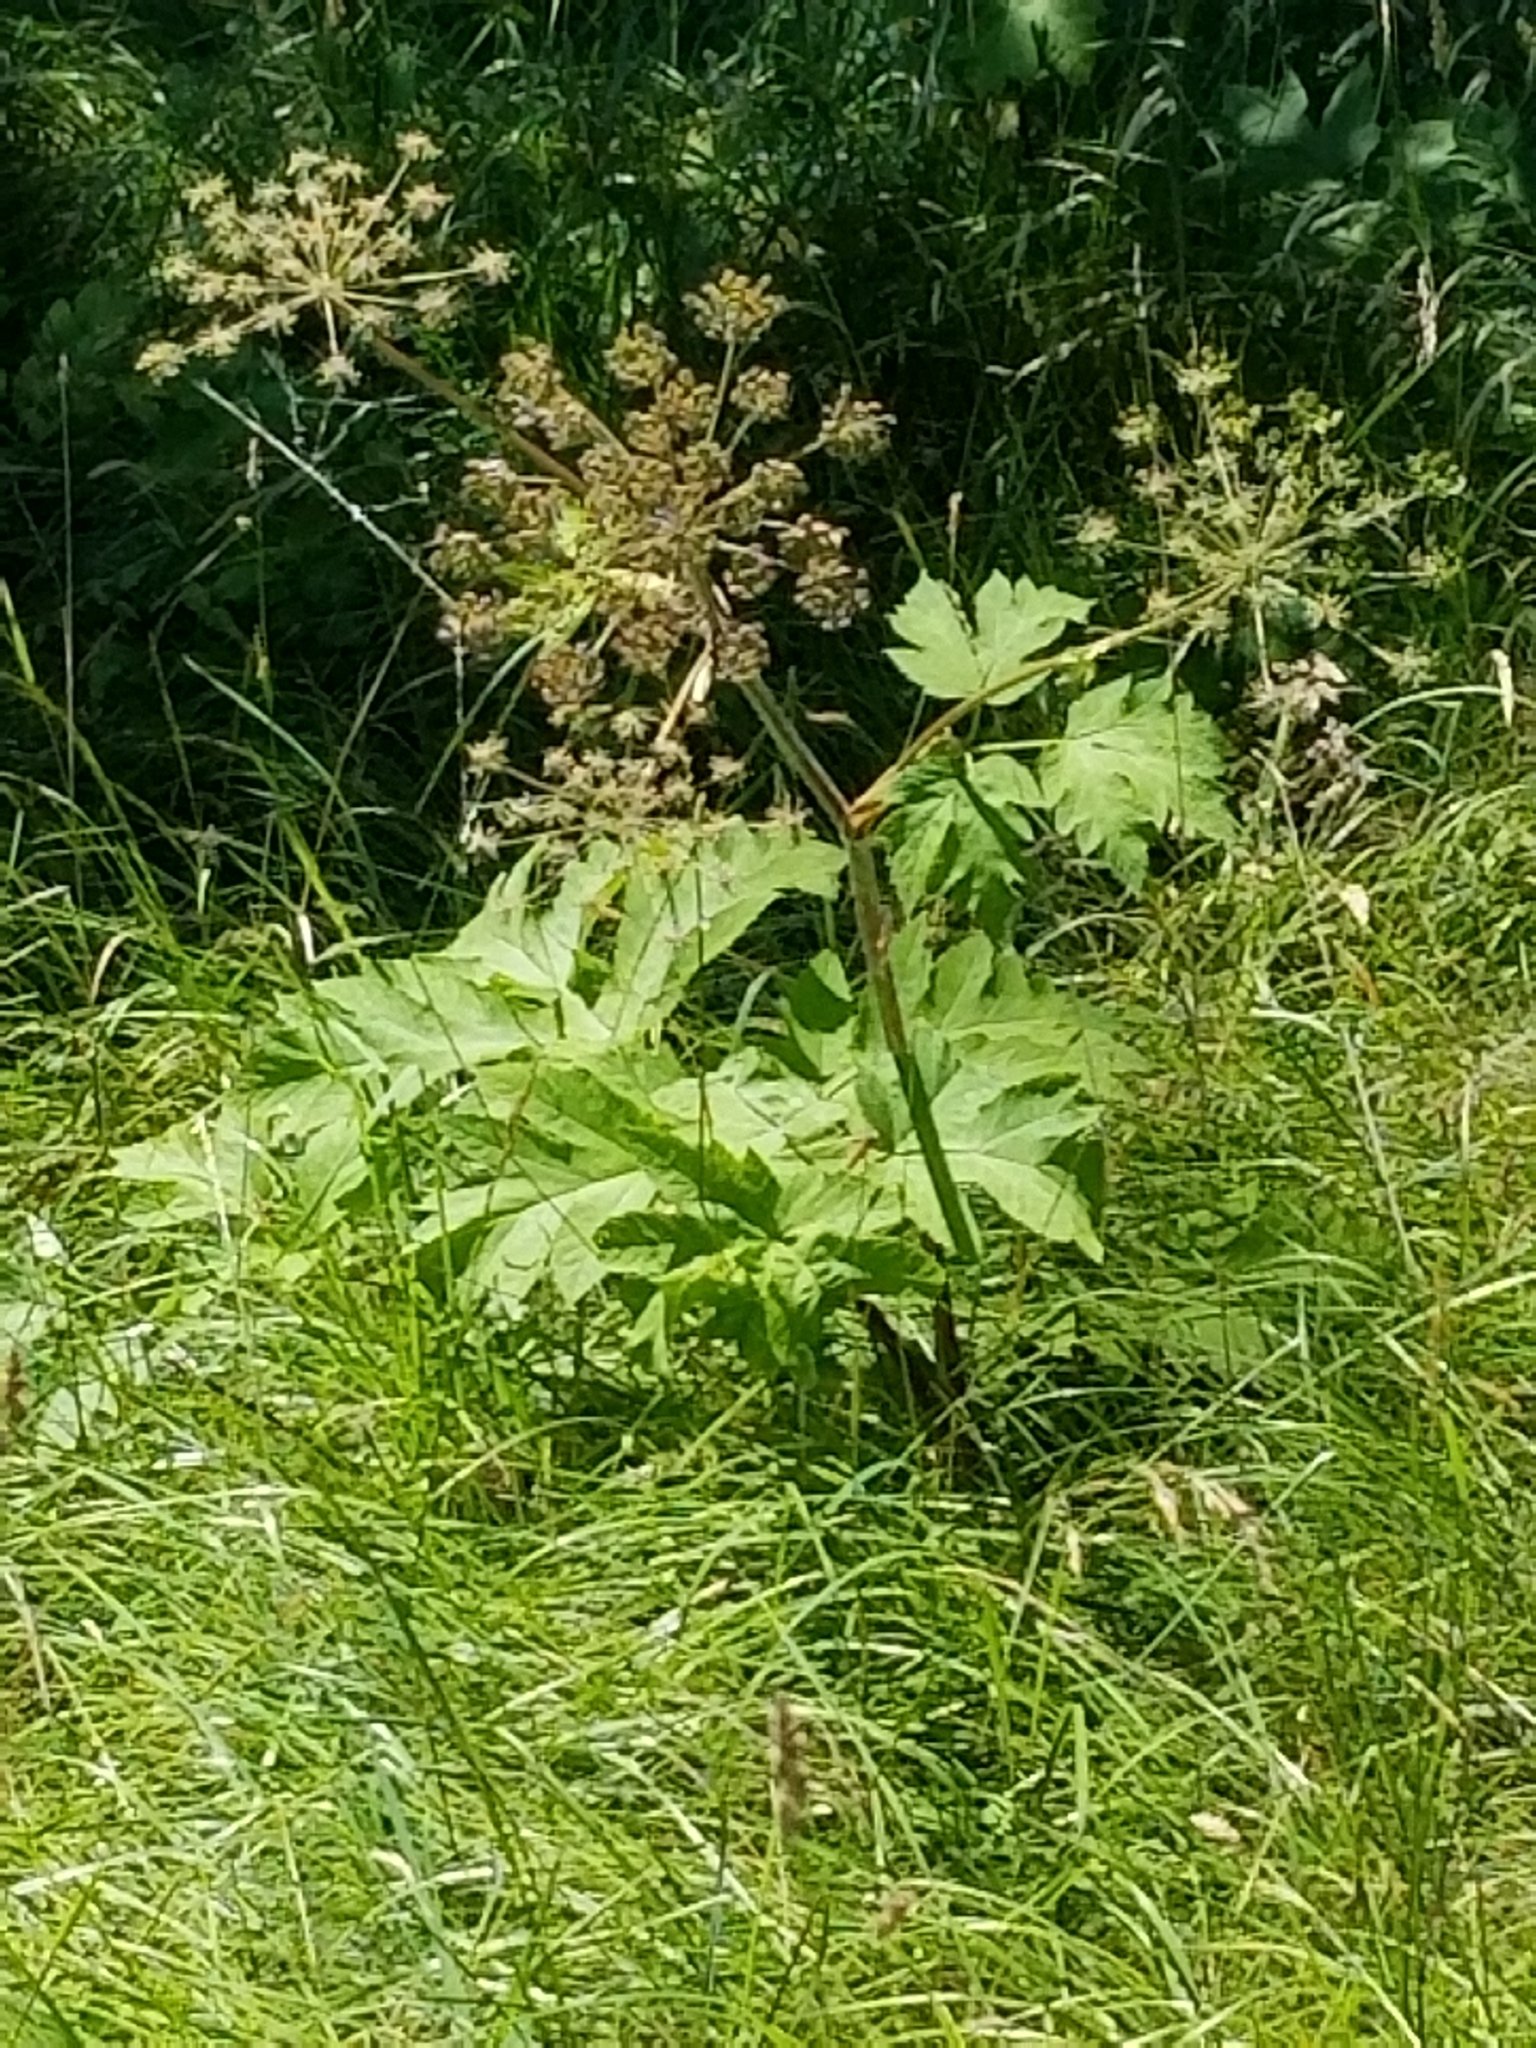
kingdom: Plantae
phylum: Tracheophyta
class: Magnoliopsida
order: Apiales
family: Apiaceae
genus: Heracleum
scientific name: Heracleum maximum
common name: American cow parsnip
